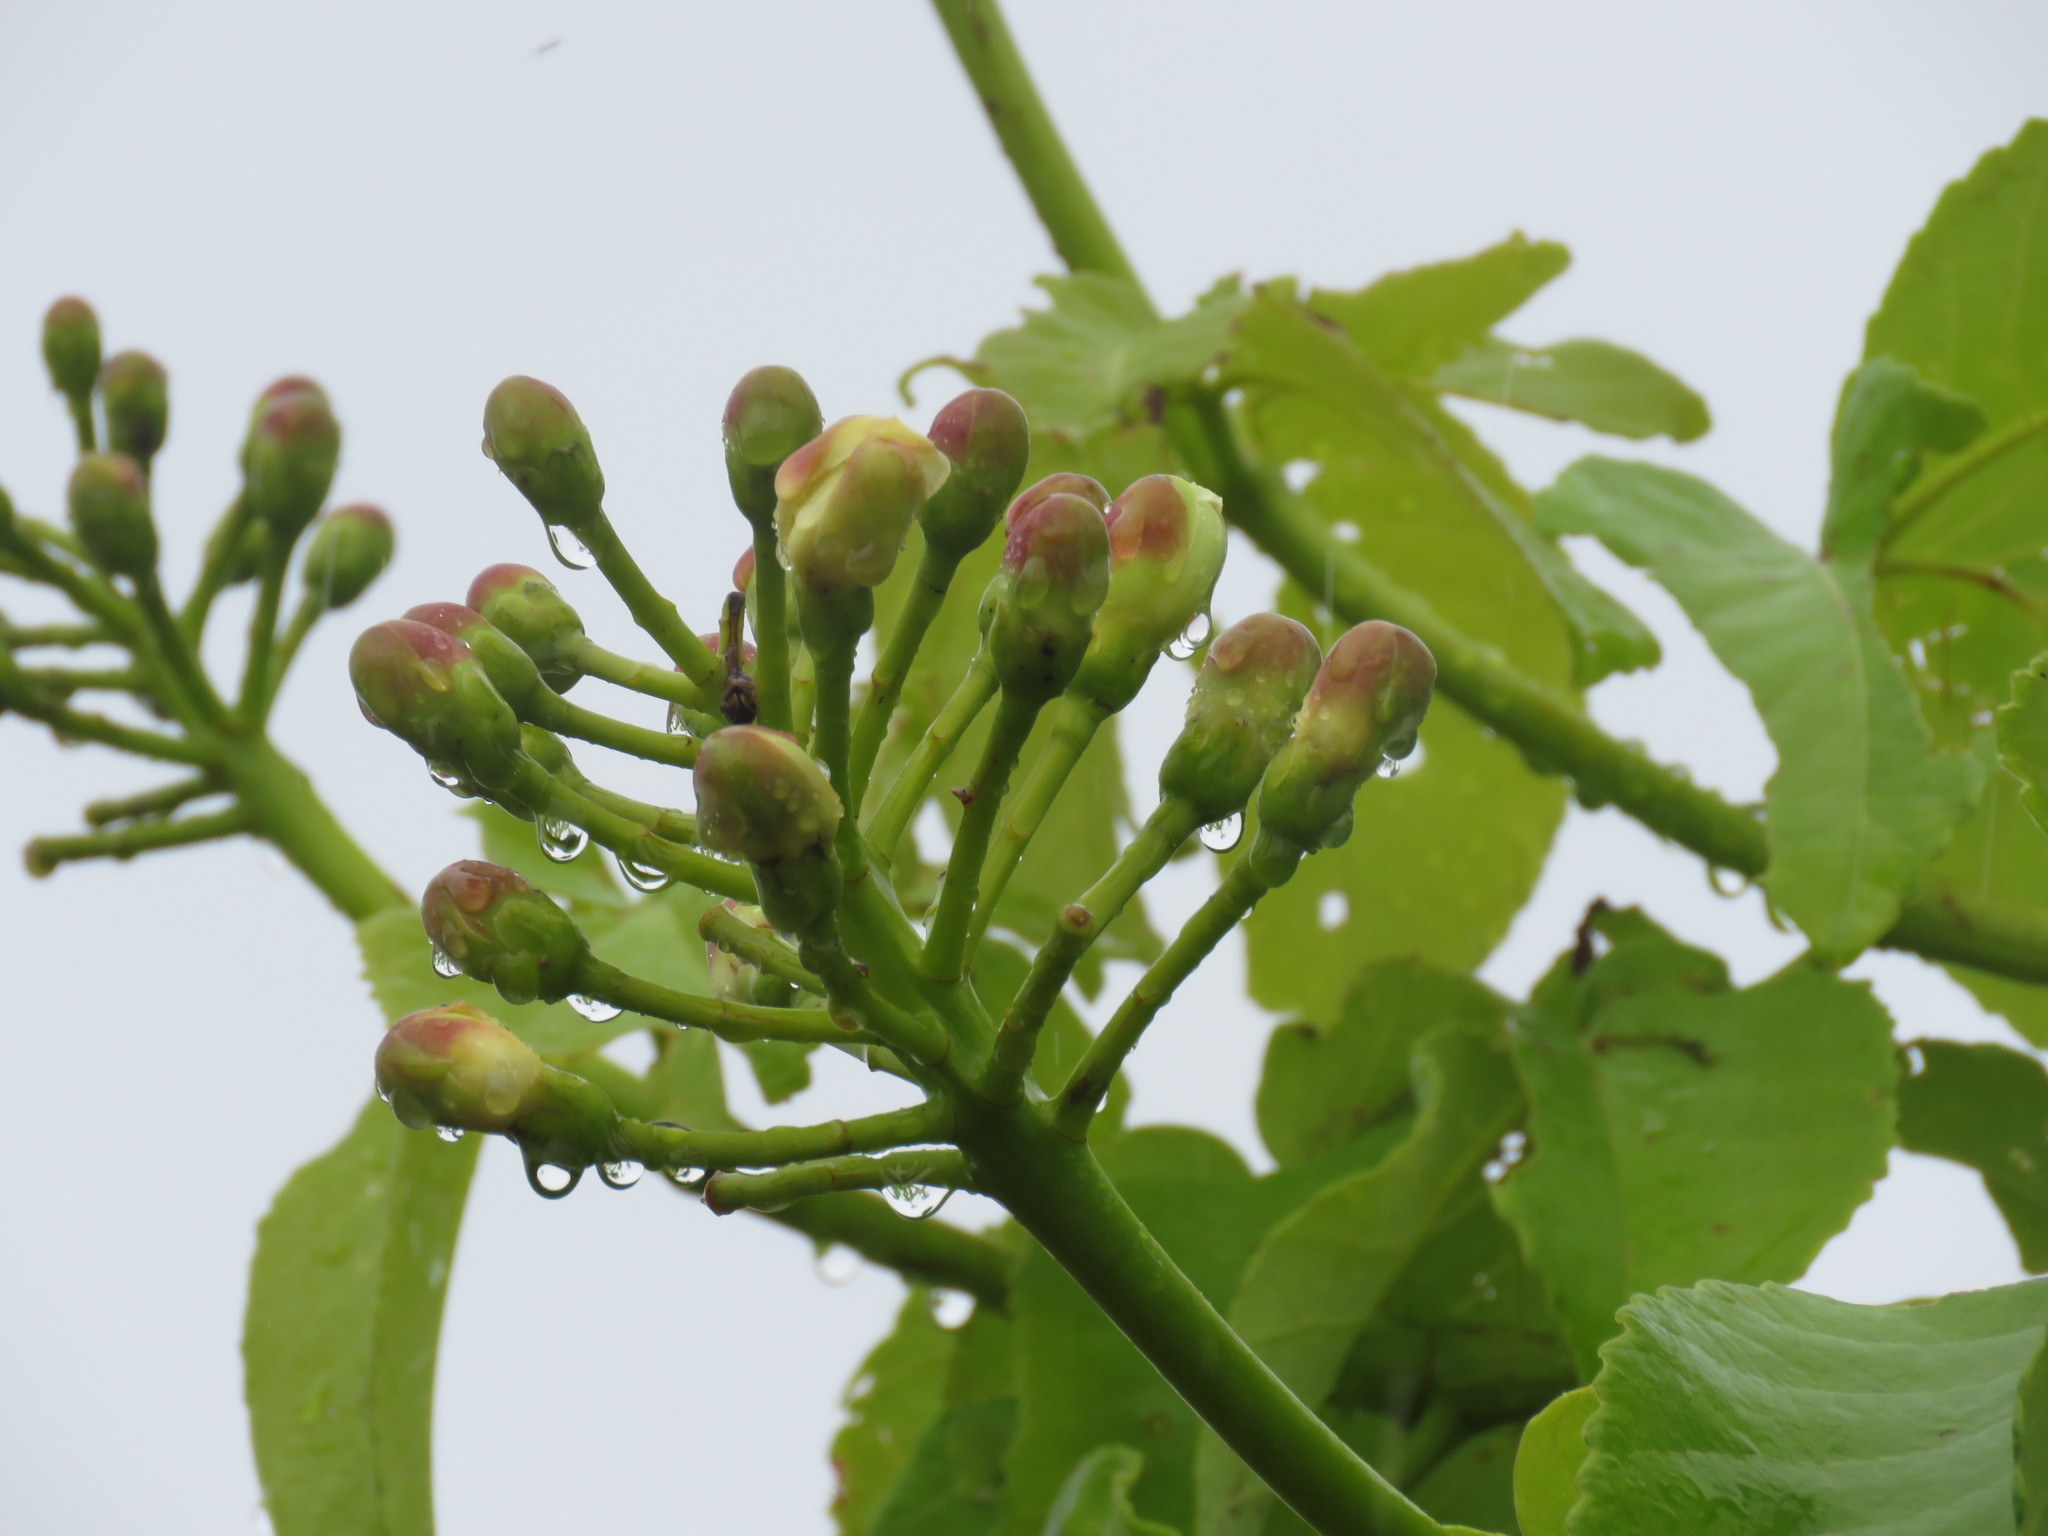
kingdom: Plantae
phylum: Tracheophyta
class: Magnoliopsida
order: Malpighiales
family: Caryocaraceae
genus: Caryocar
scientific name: Caryocar brasiliense
